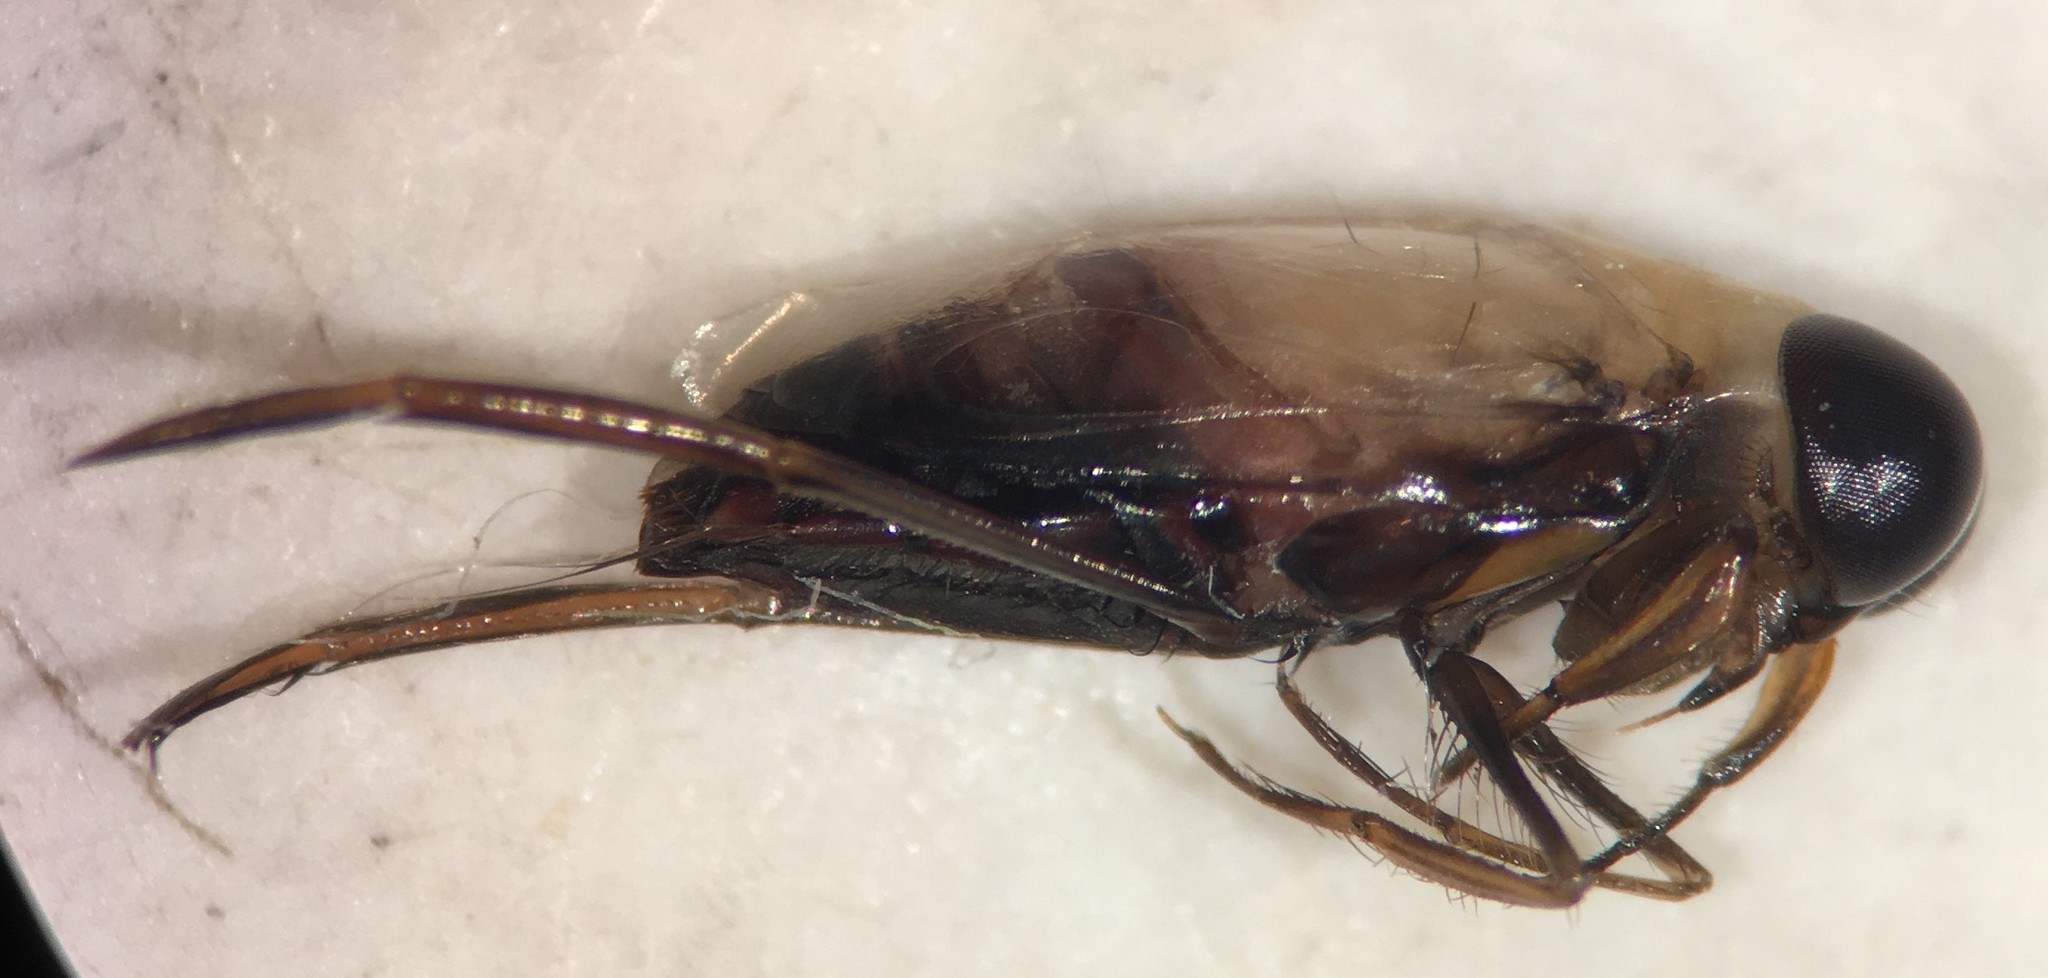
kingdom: Animalia
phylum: Arthropoda
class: Insecta
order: Hemiptera
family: Notonectidae
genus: Buenoa
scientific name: Buenoa marki
